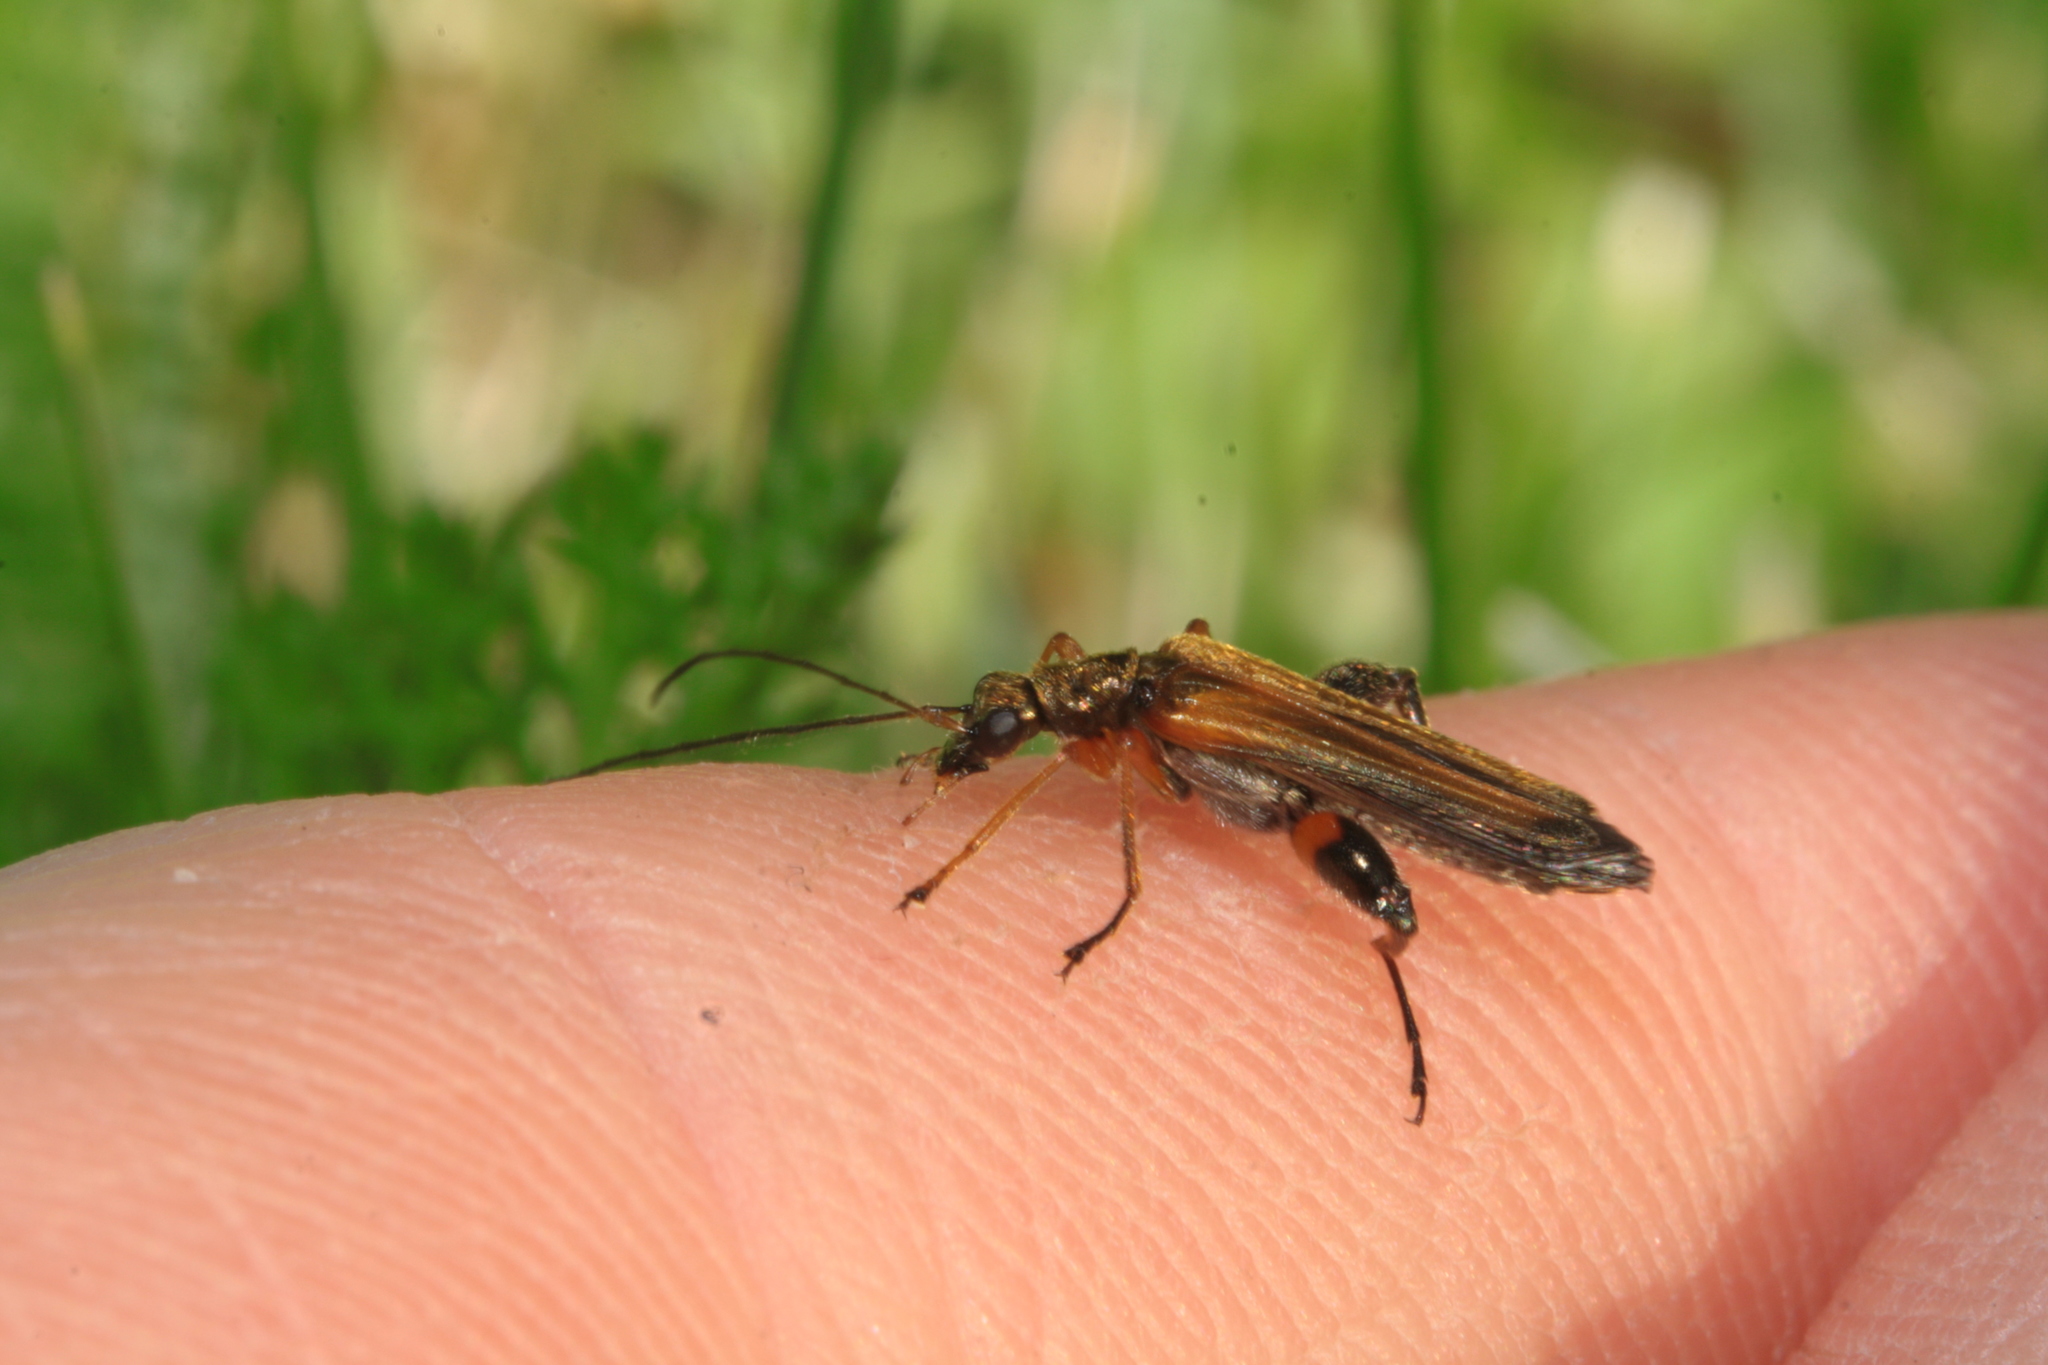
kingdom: Animalia
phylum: Arthropoda
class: Insecta
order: Coleoptera
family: Oedemeridae
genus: Oedemera
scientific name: Oedemera podagrariae
